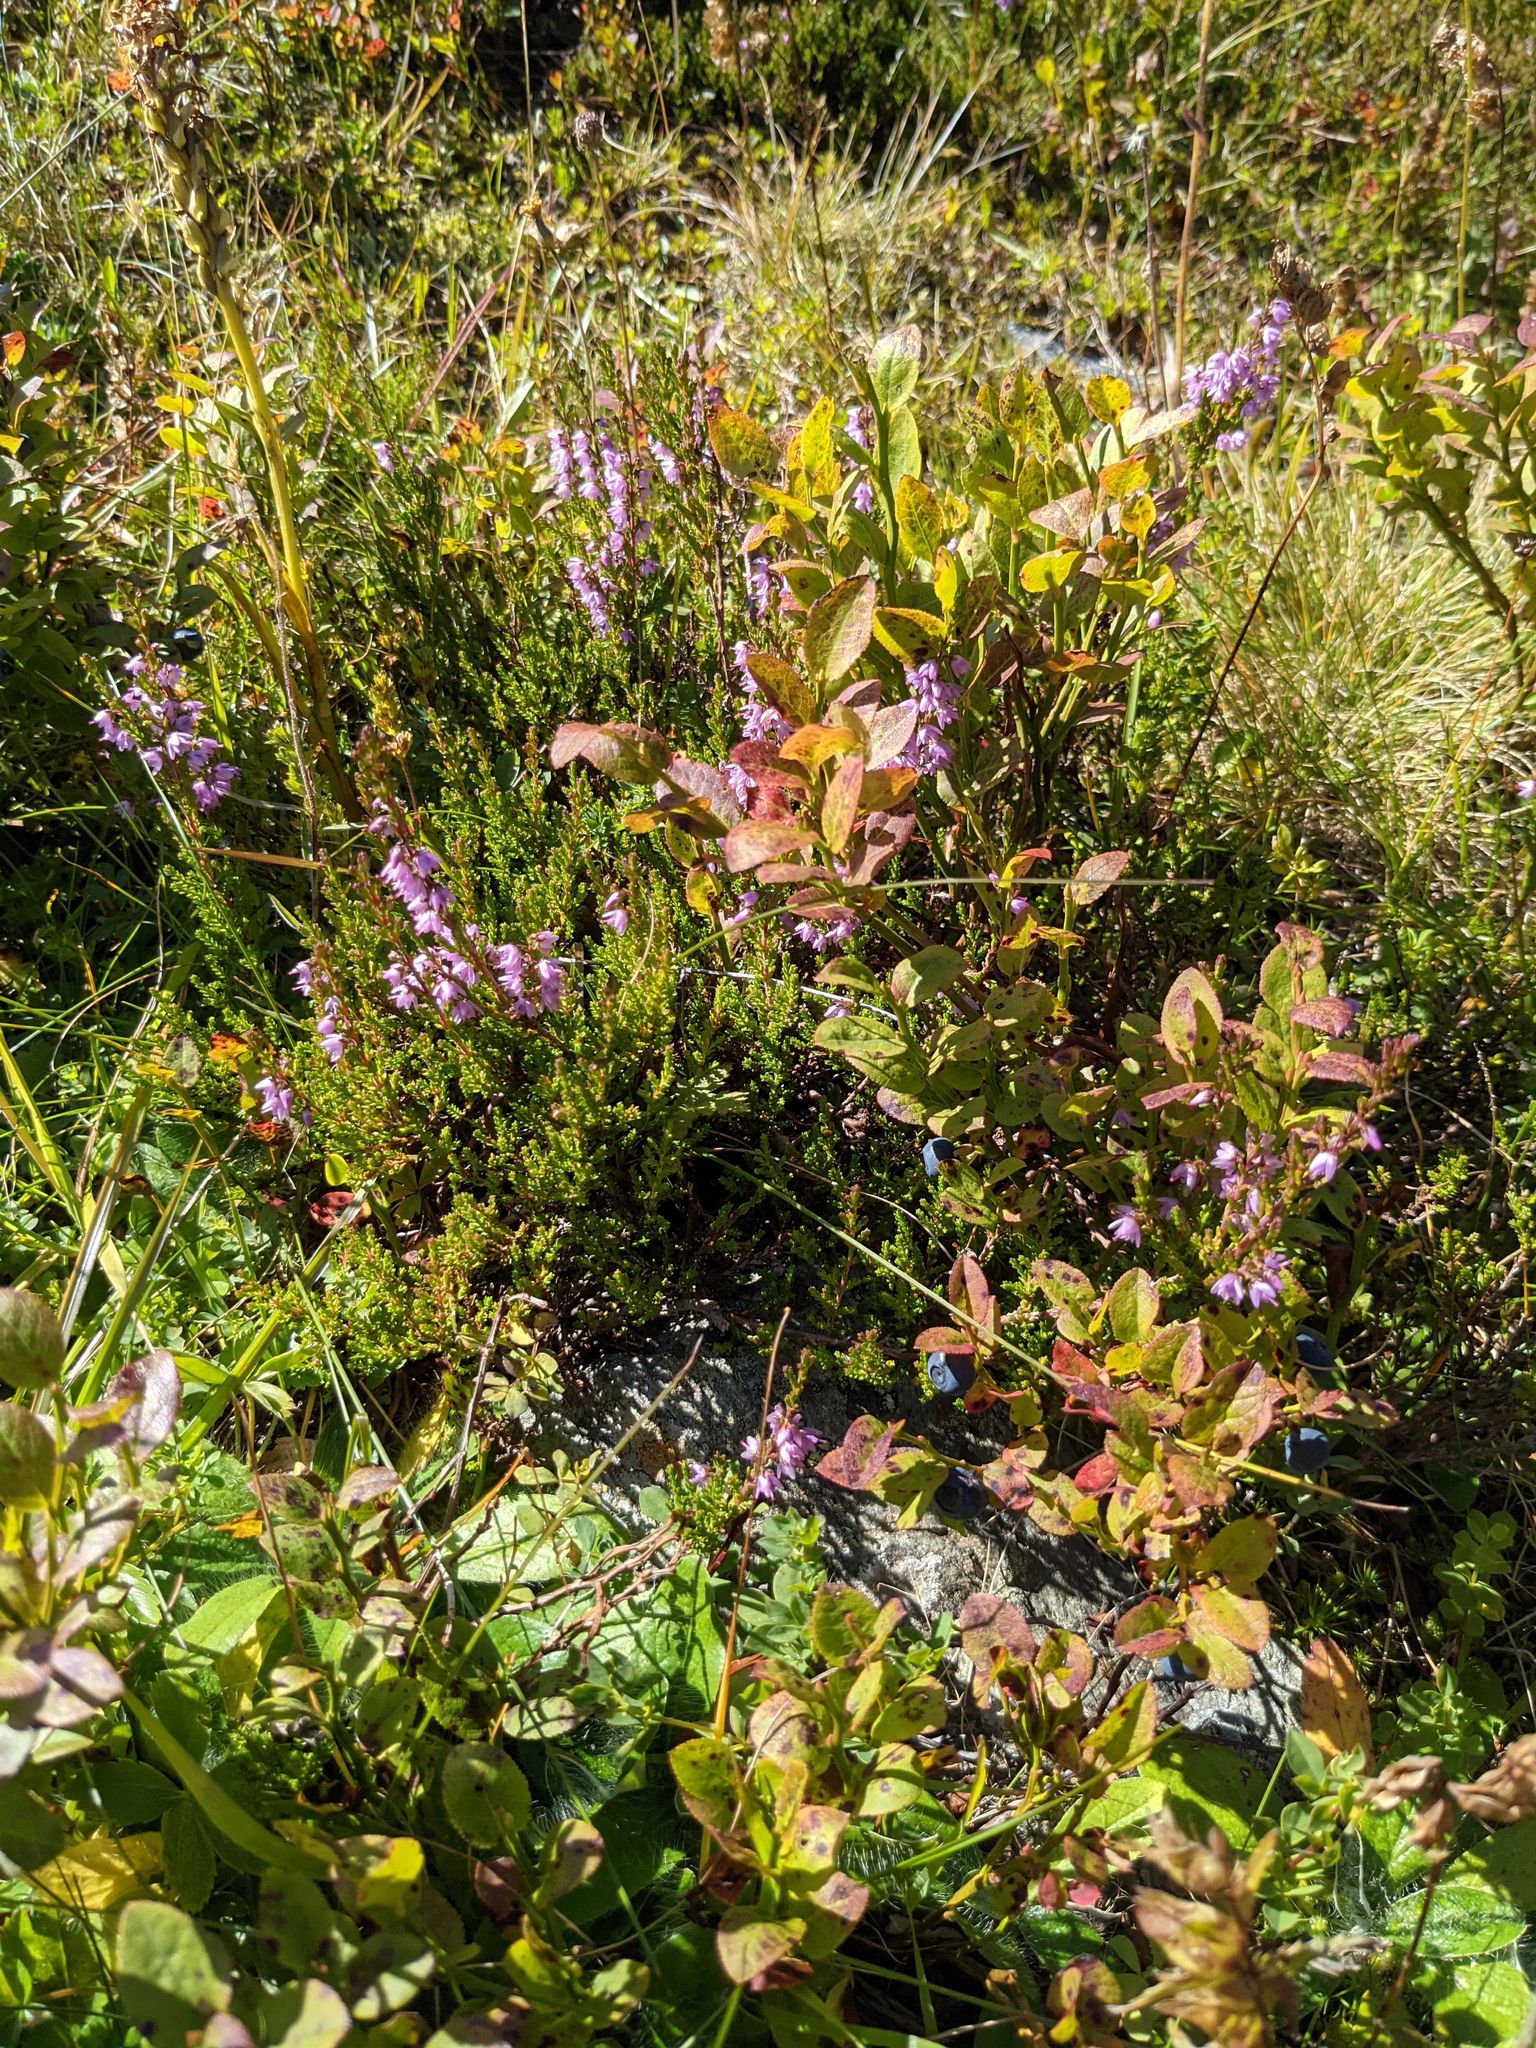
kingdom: Plantae
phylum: Tracheophyta
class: Magnoliopsida
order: Ericales
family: Ericaceae
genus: Calluna
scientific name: Calluna vulgaris
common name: Heather
